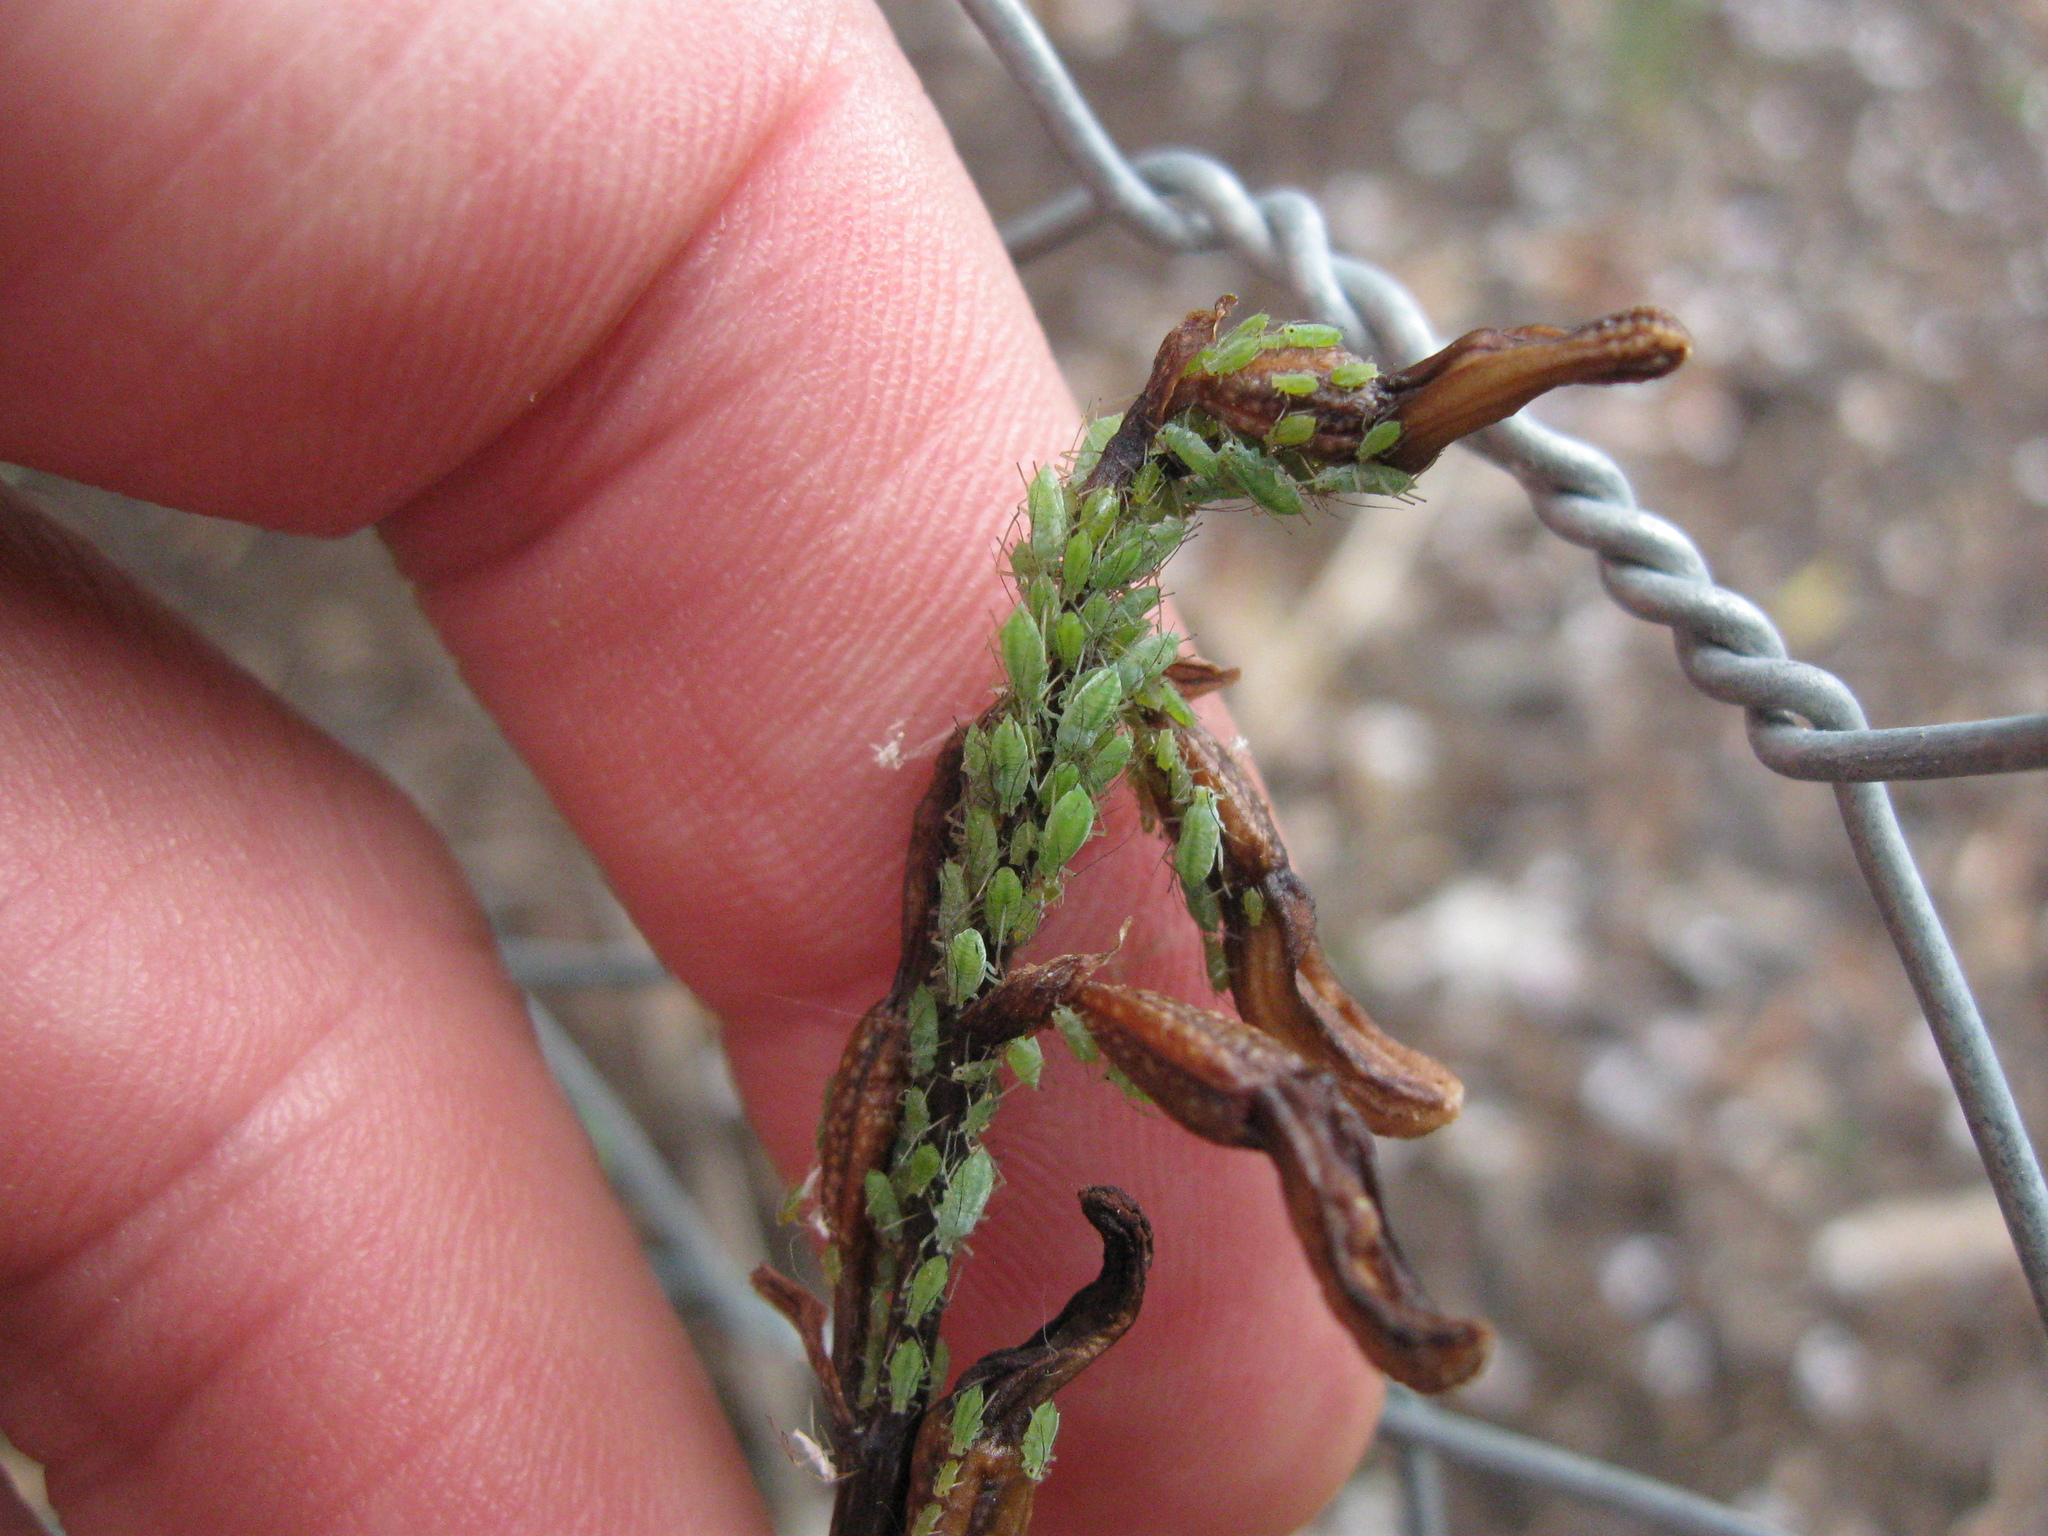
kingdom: Animalia
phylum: Arthropoda
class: Insecta
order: Hemiptera
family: Aphididae
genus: Macrosiphum
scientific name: Macrosiphum euphorbiae
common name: Potato aphid
